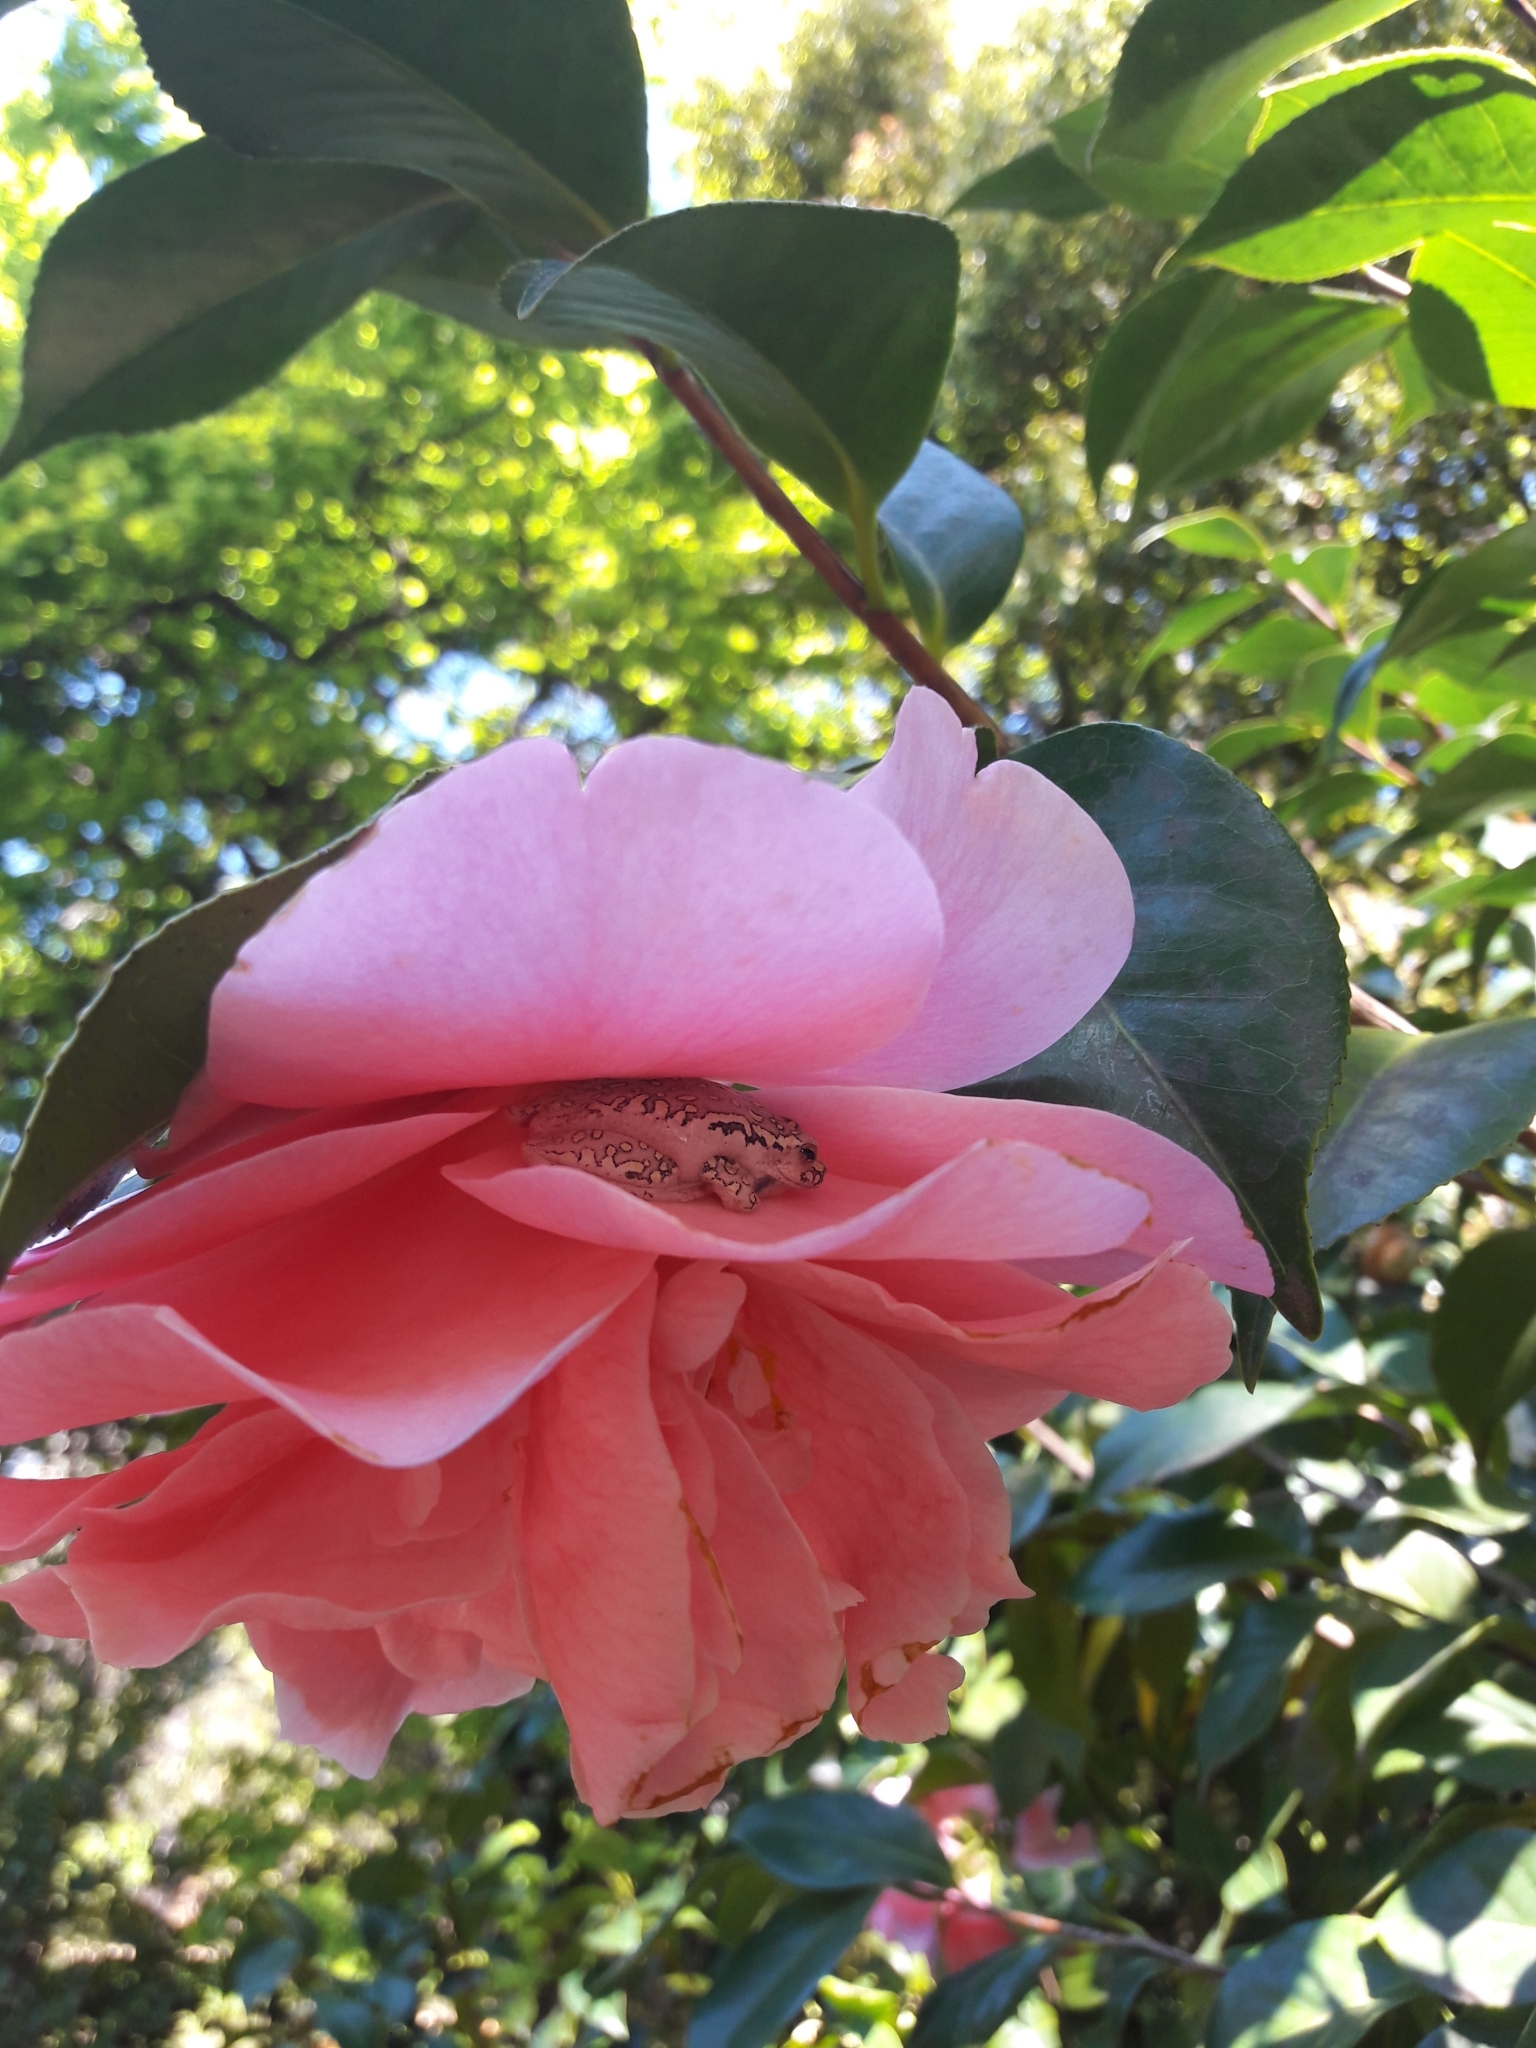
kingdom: Animalia
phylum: Chordata
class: Amphibia
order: Anura
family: Hyperoliidae
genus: Hyperolius
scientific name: Hyperolius marmoratus
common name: Painted reed frog
